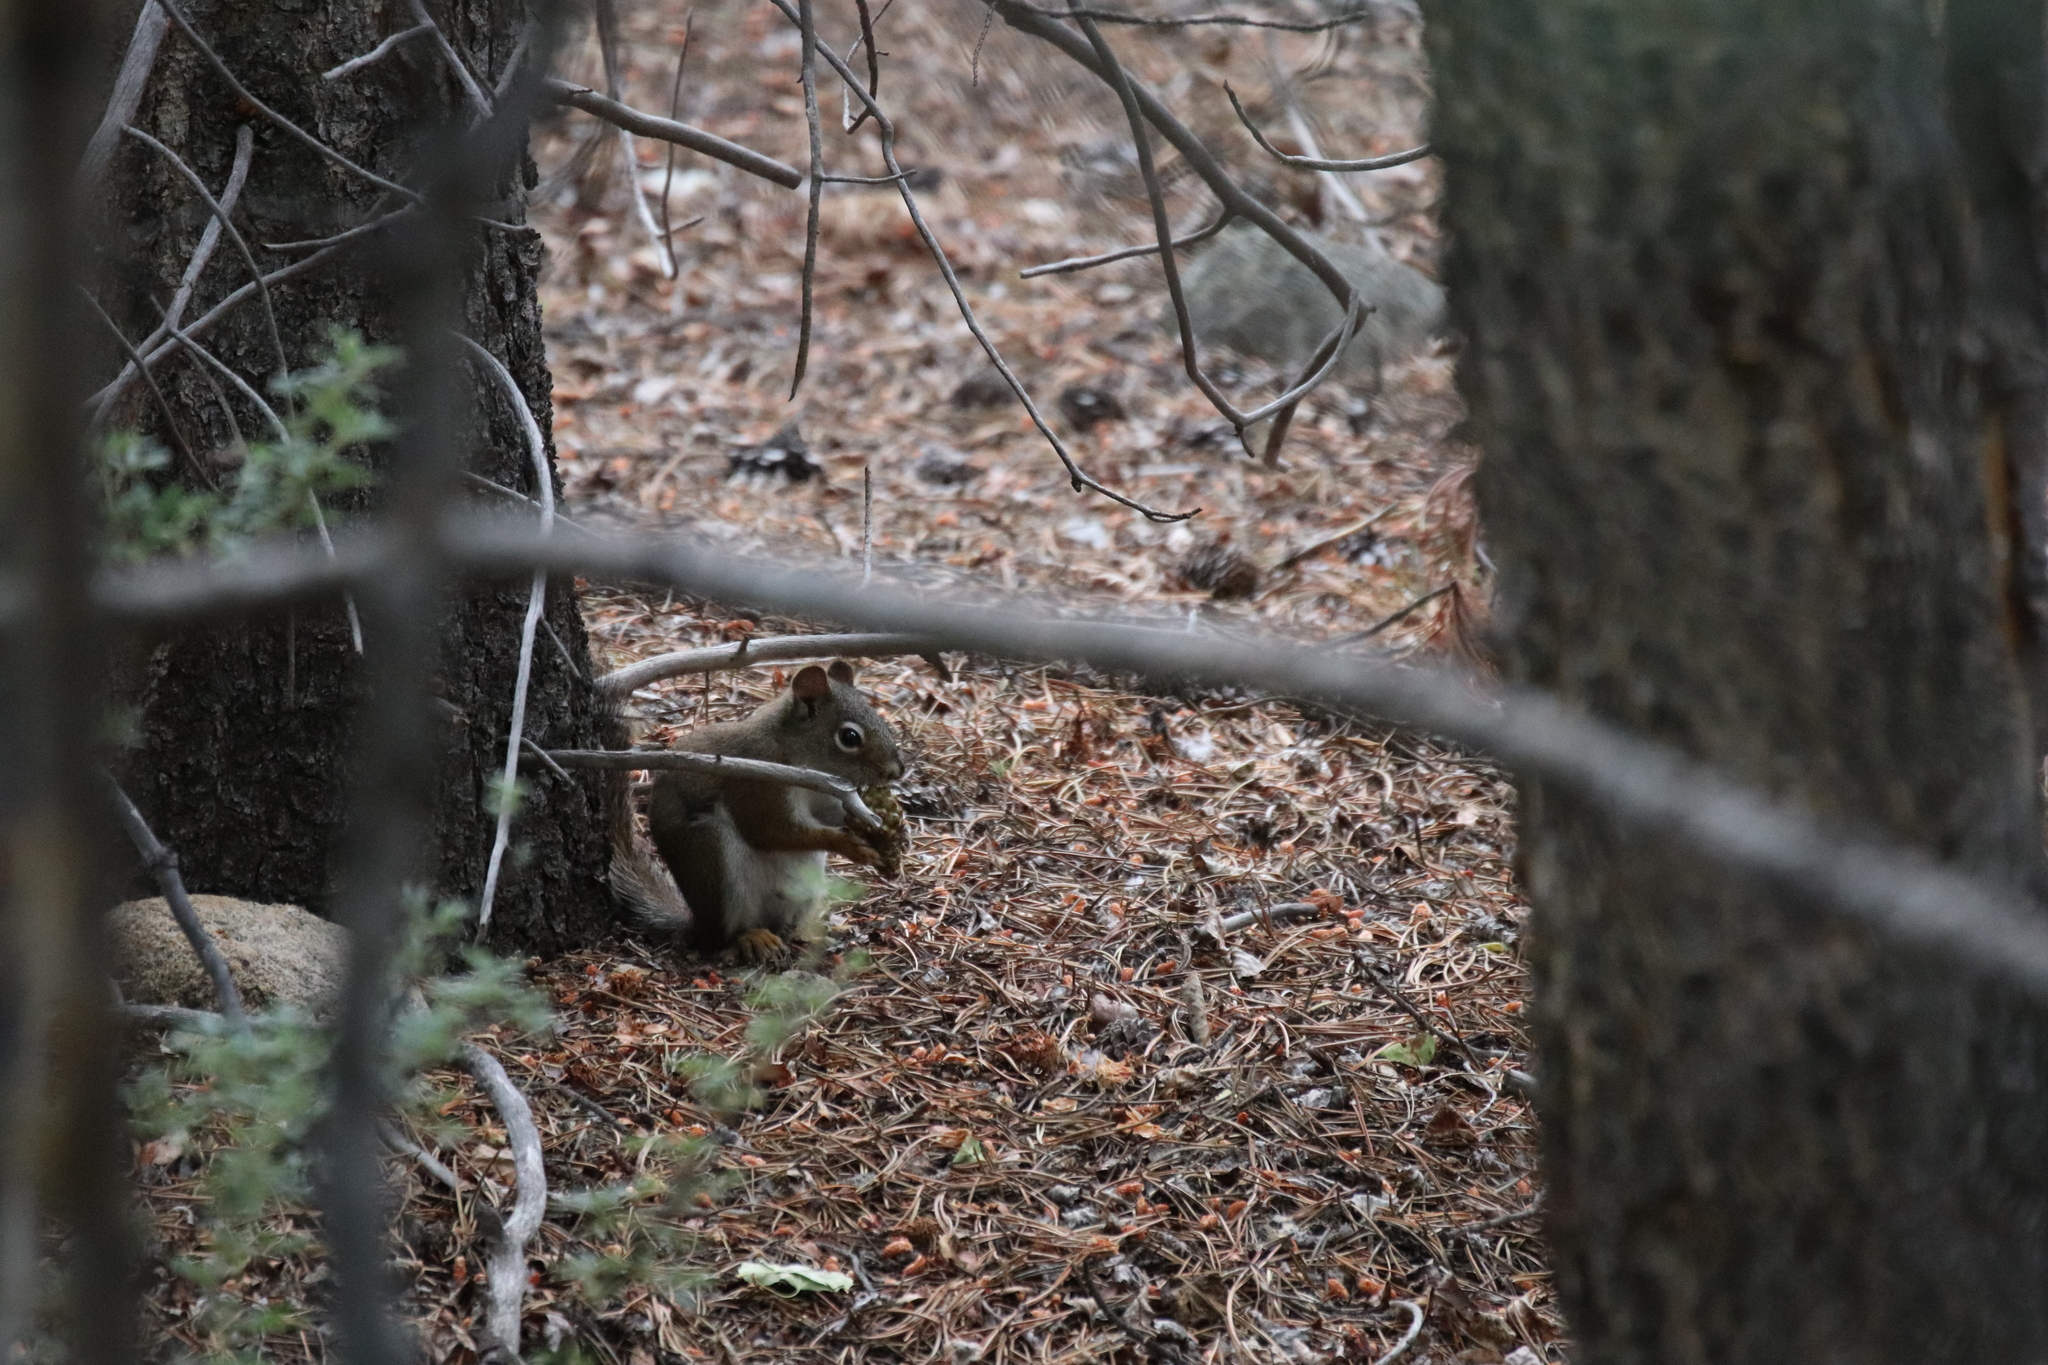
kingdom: Animalia
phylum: Chordata
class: Mammalia
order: Rodentia
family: Sciuridae
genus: Tamiasciurus
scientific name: Tamiasciurus hudsonicus
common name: Red squirrel
